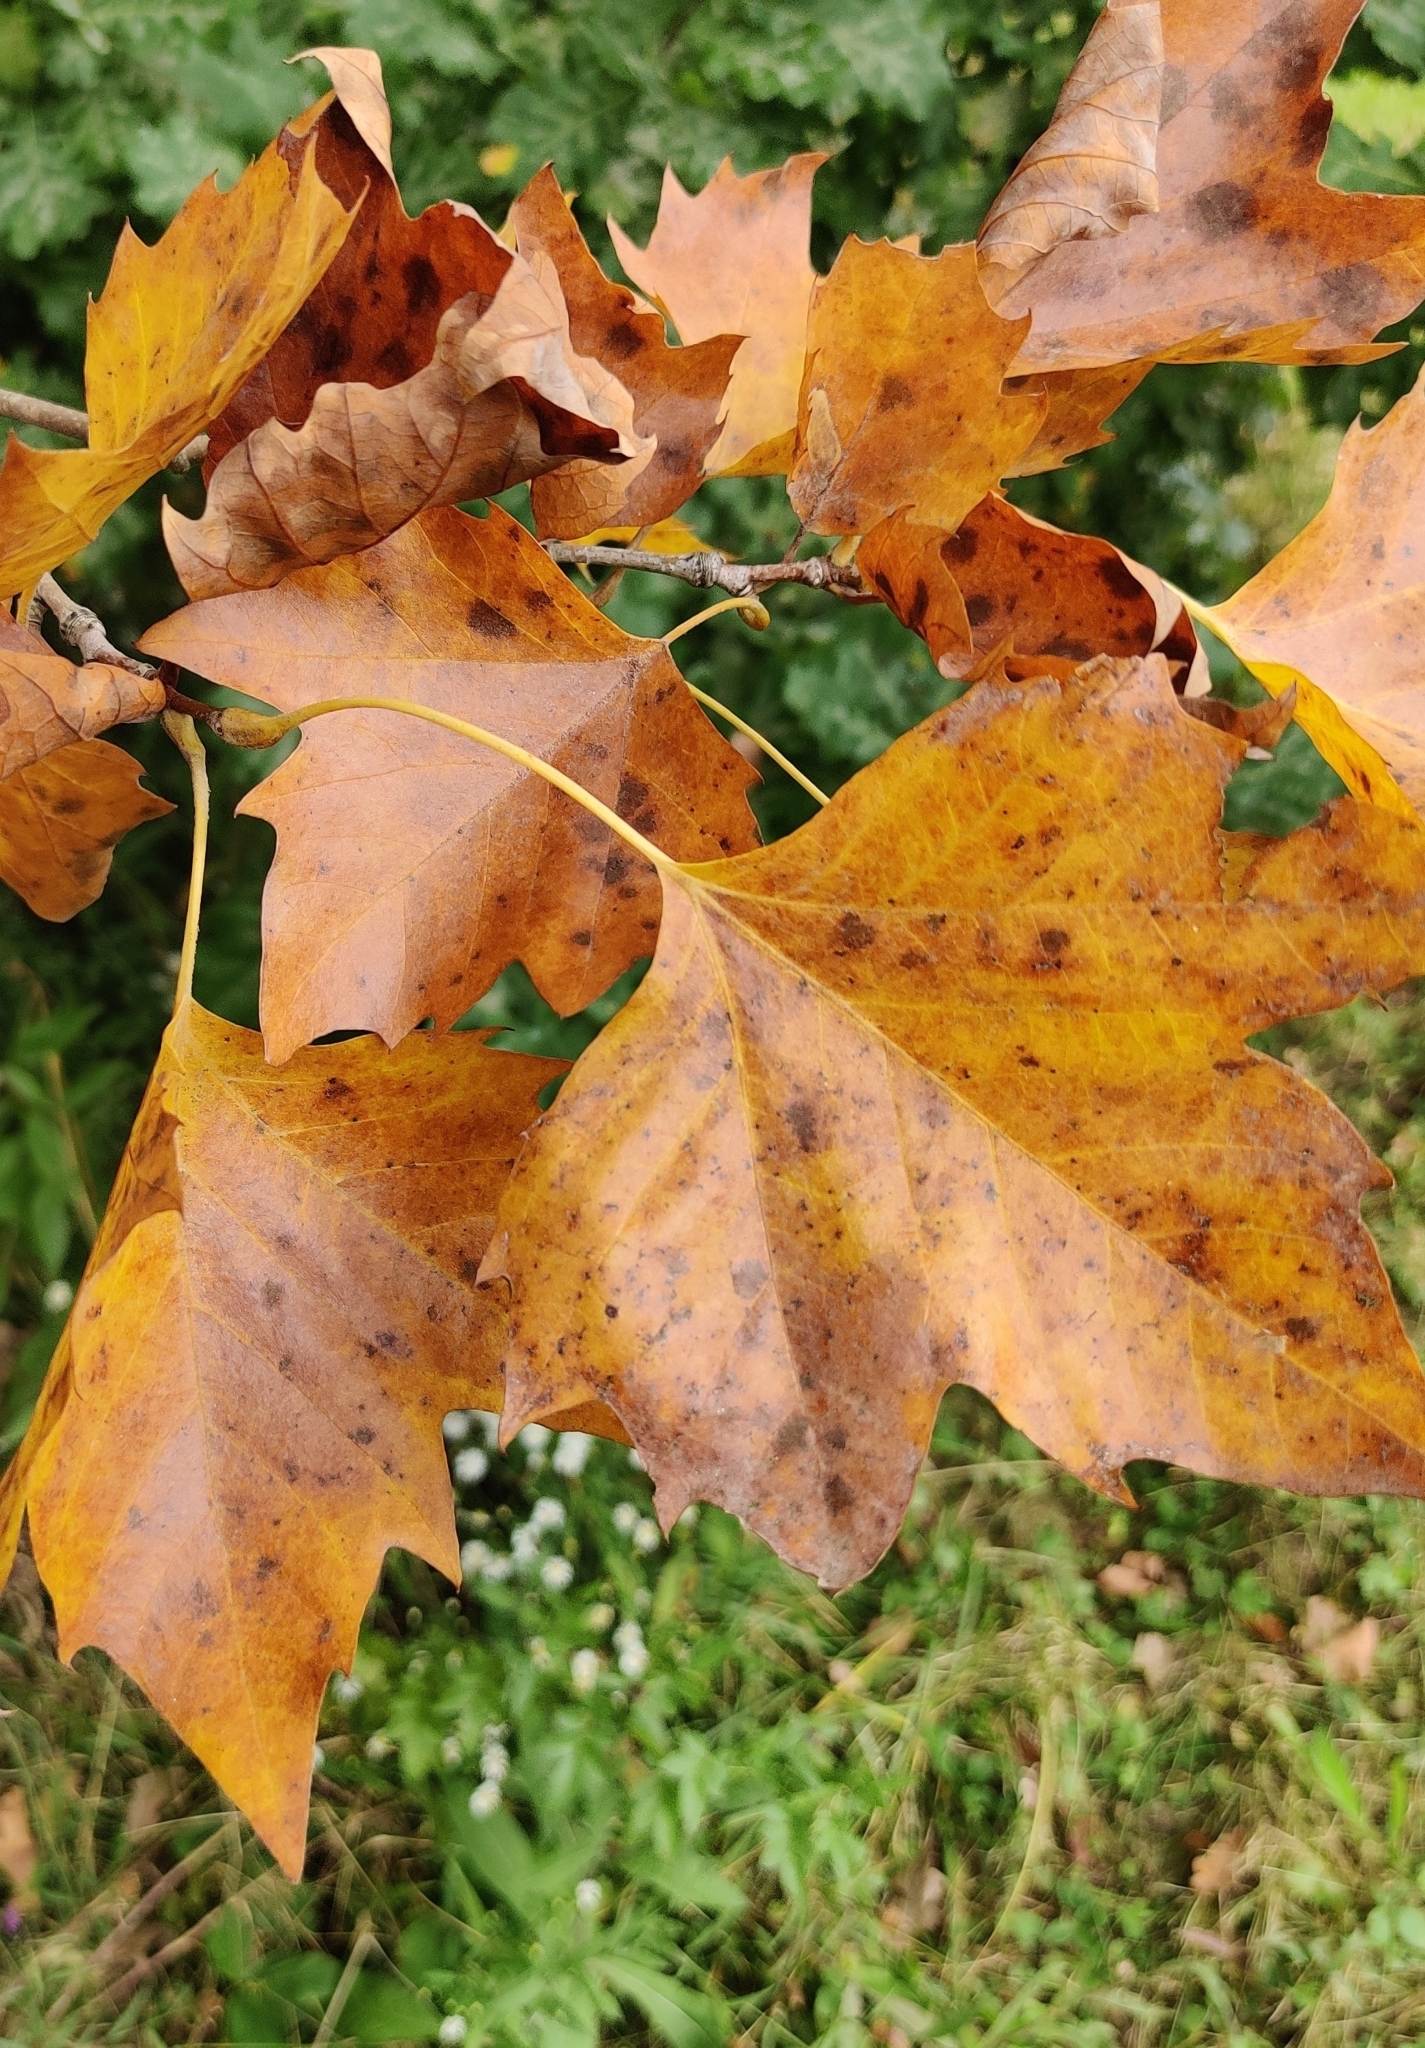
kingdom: Plantae
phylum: Tracheophyta
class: Magnoliopsida
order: Proteales
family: Platanaceae
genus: Platanus
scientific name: Platanus occidentalis
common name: American sycamore
